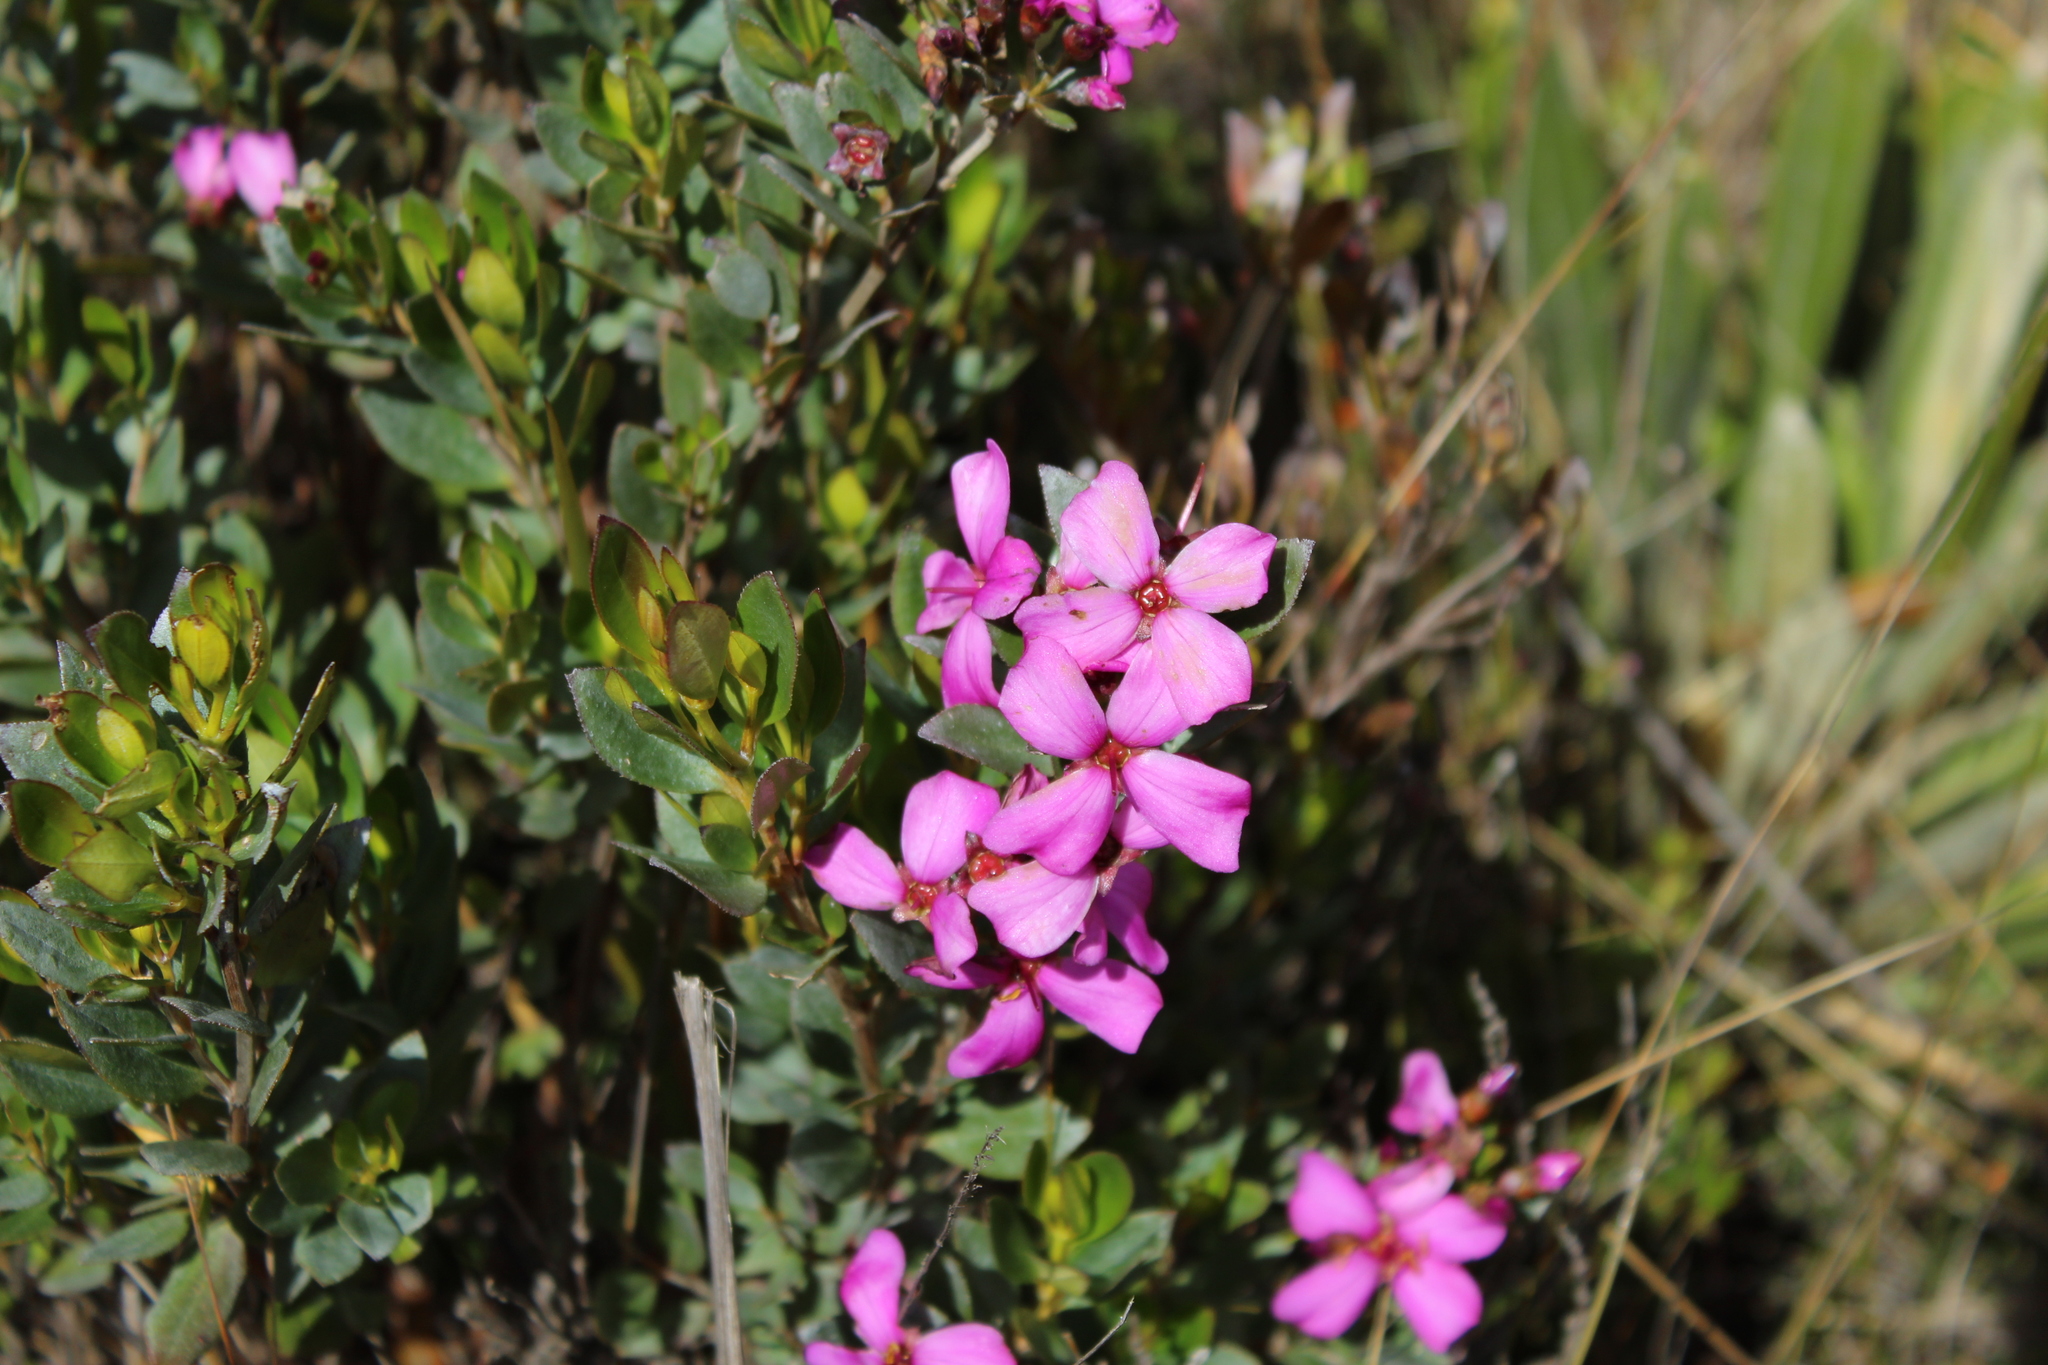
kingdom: Plantae
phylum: Tracheophyta
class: Magnoliopsida
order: Myrtales
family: Melastomataceae
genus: Bucquetia
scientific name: Bucquetia glutinosa
